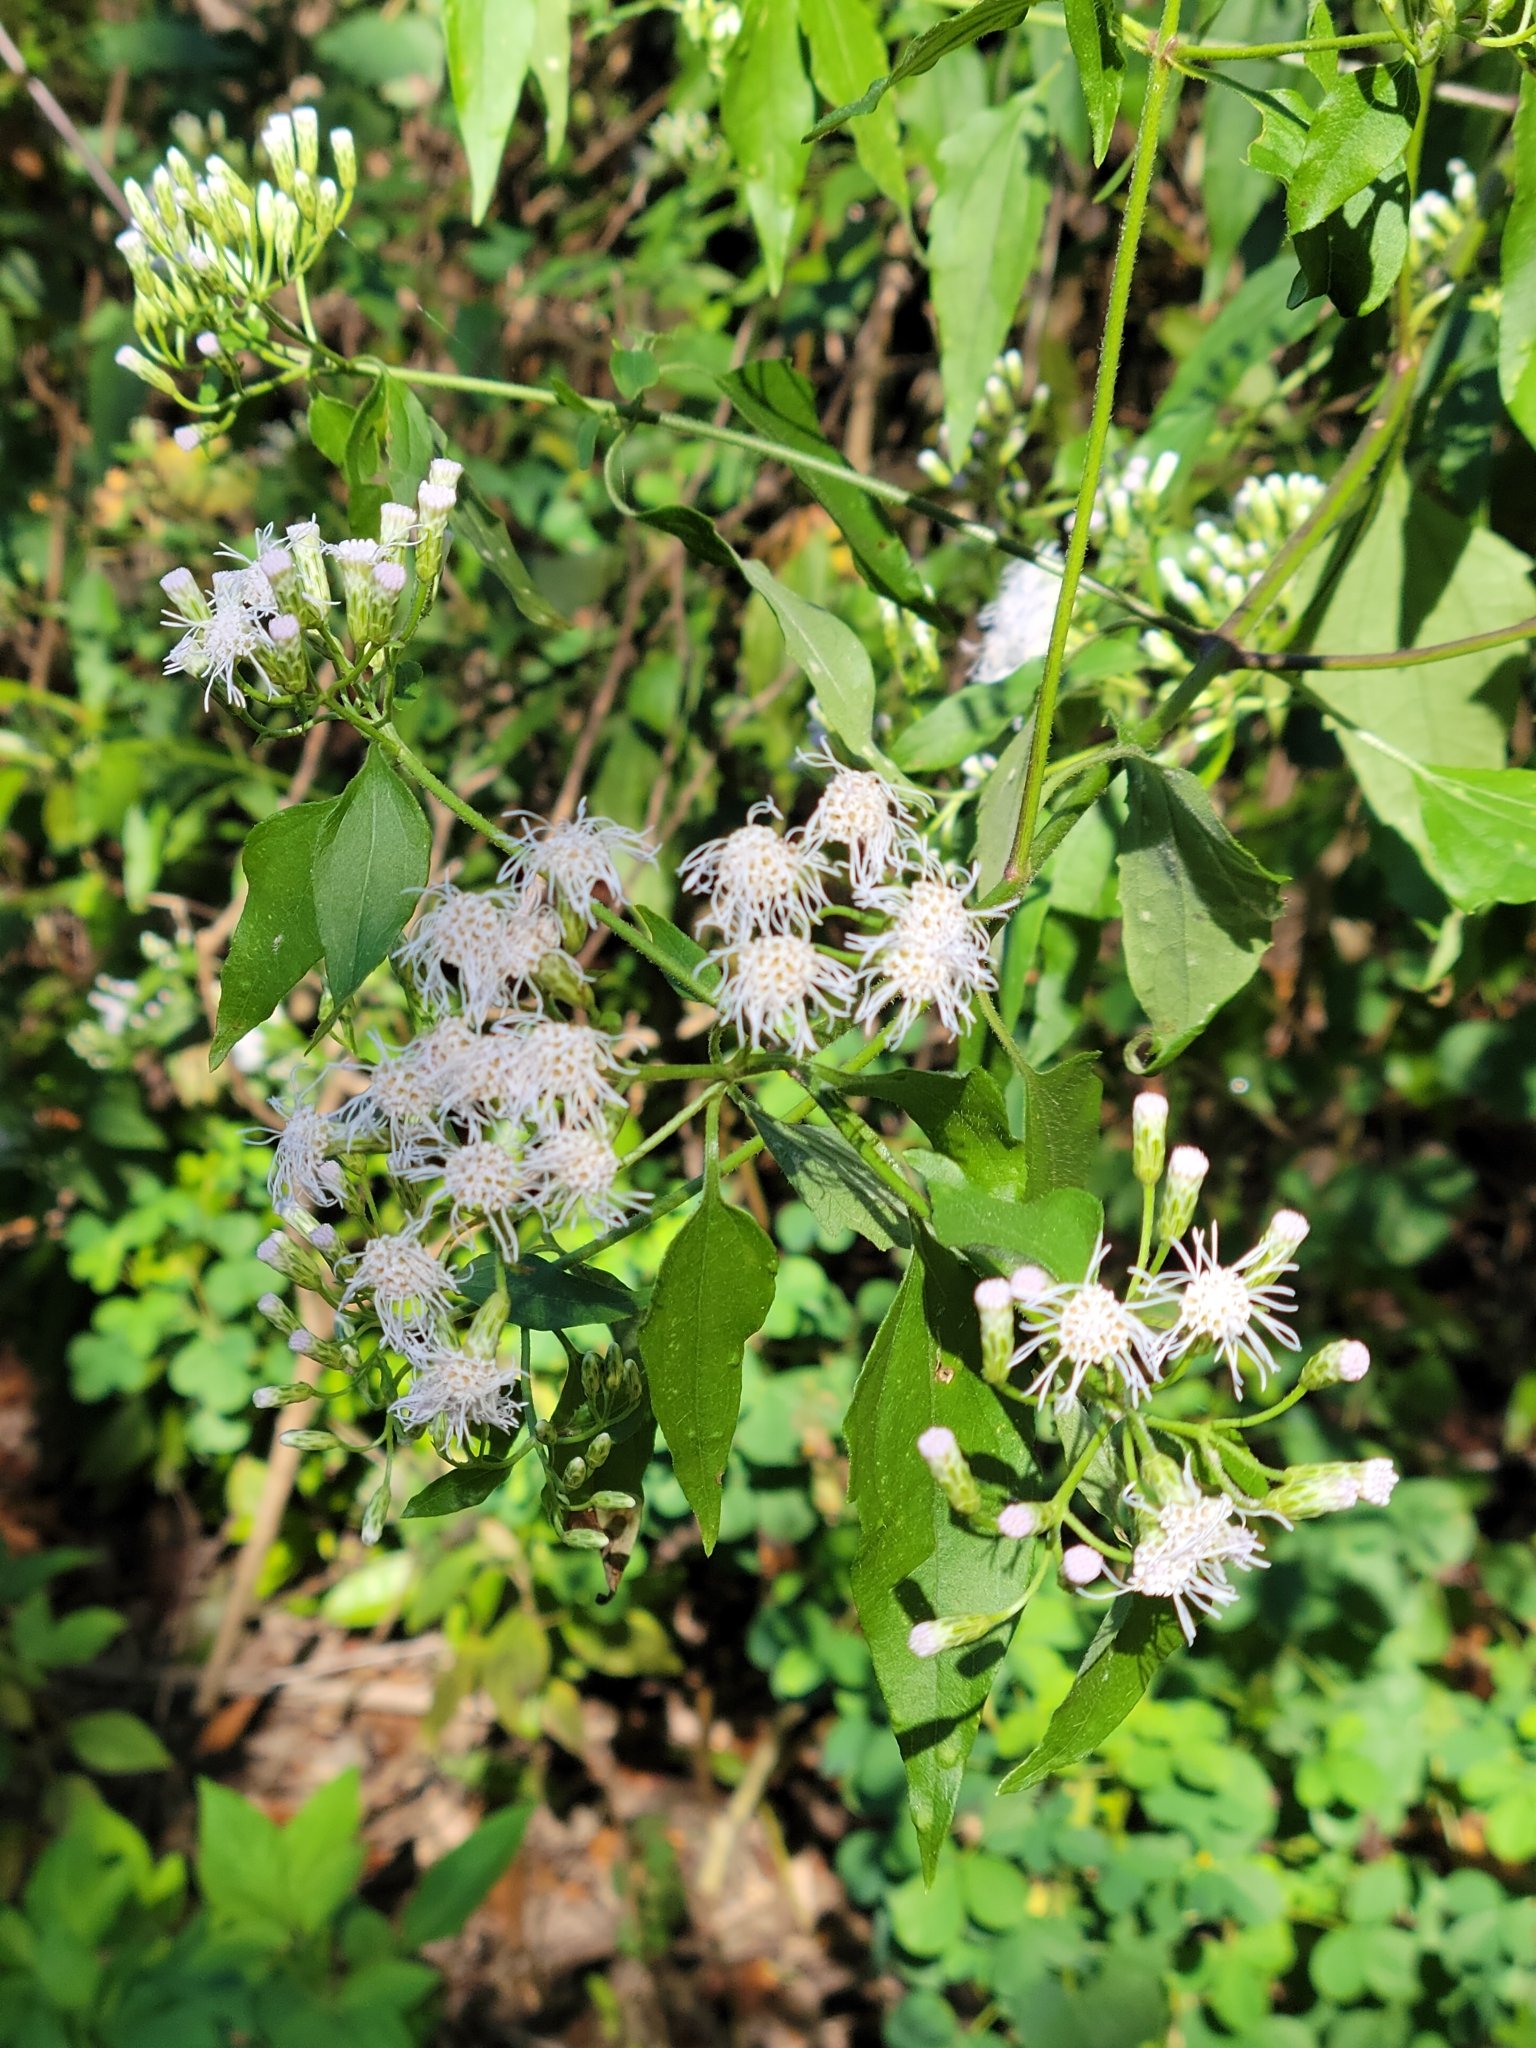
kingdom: Plantae
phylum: Tracheophyta
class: Magnoliopsida
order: Asterales
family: Asteraceae
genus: Chromolaena
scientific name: Chromolaena odorata
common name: Siamweed
